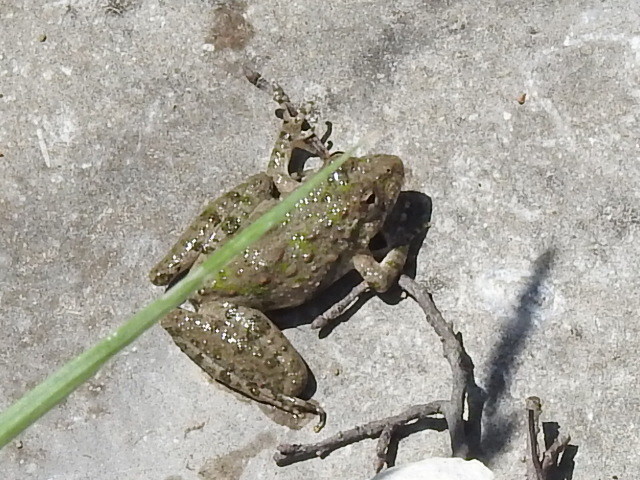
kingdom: Animalia
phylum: Chordata
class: Amphibia
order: Anura
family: Hylidae
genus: Acris
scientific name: Acris blanchardi
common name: Blanchard's cricket frog
